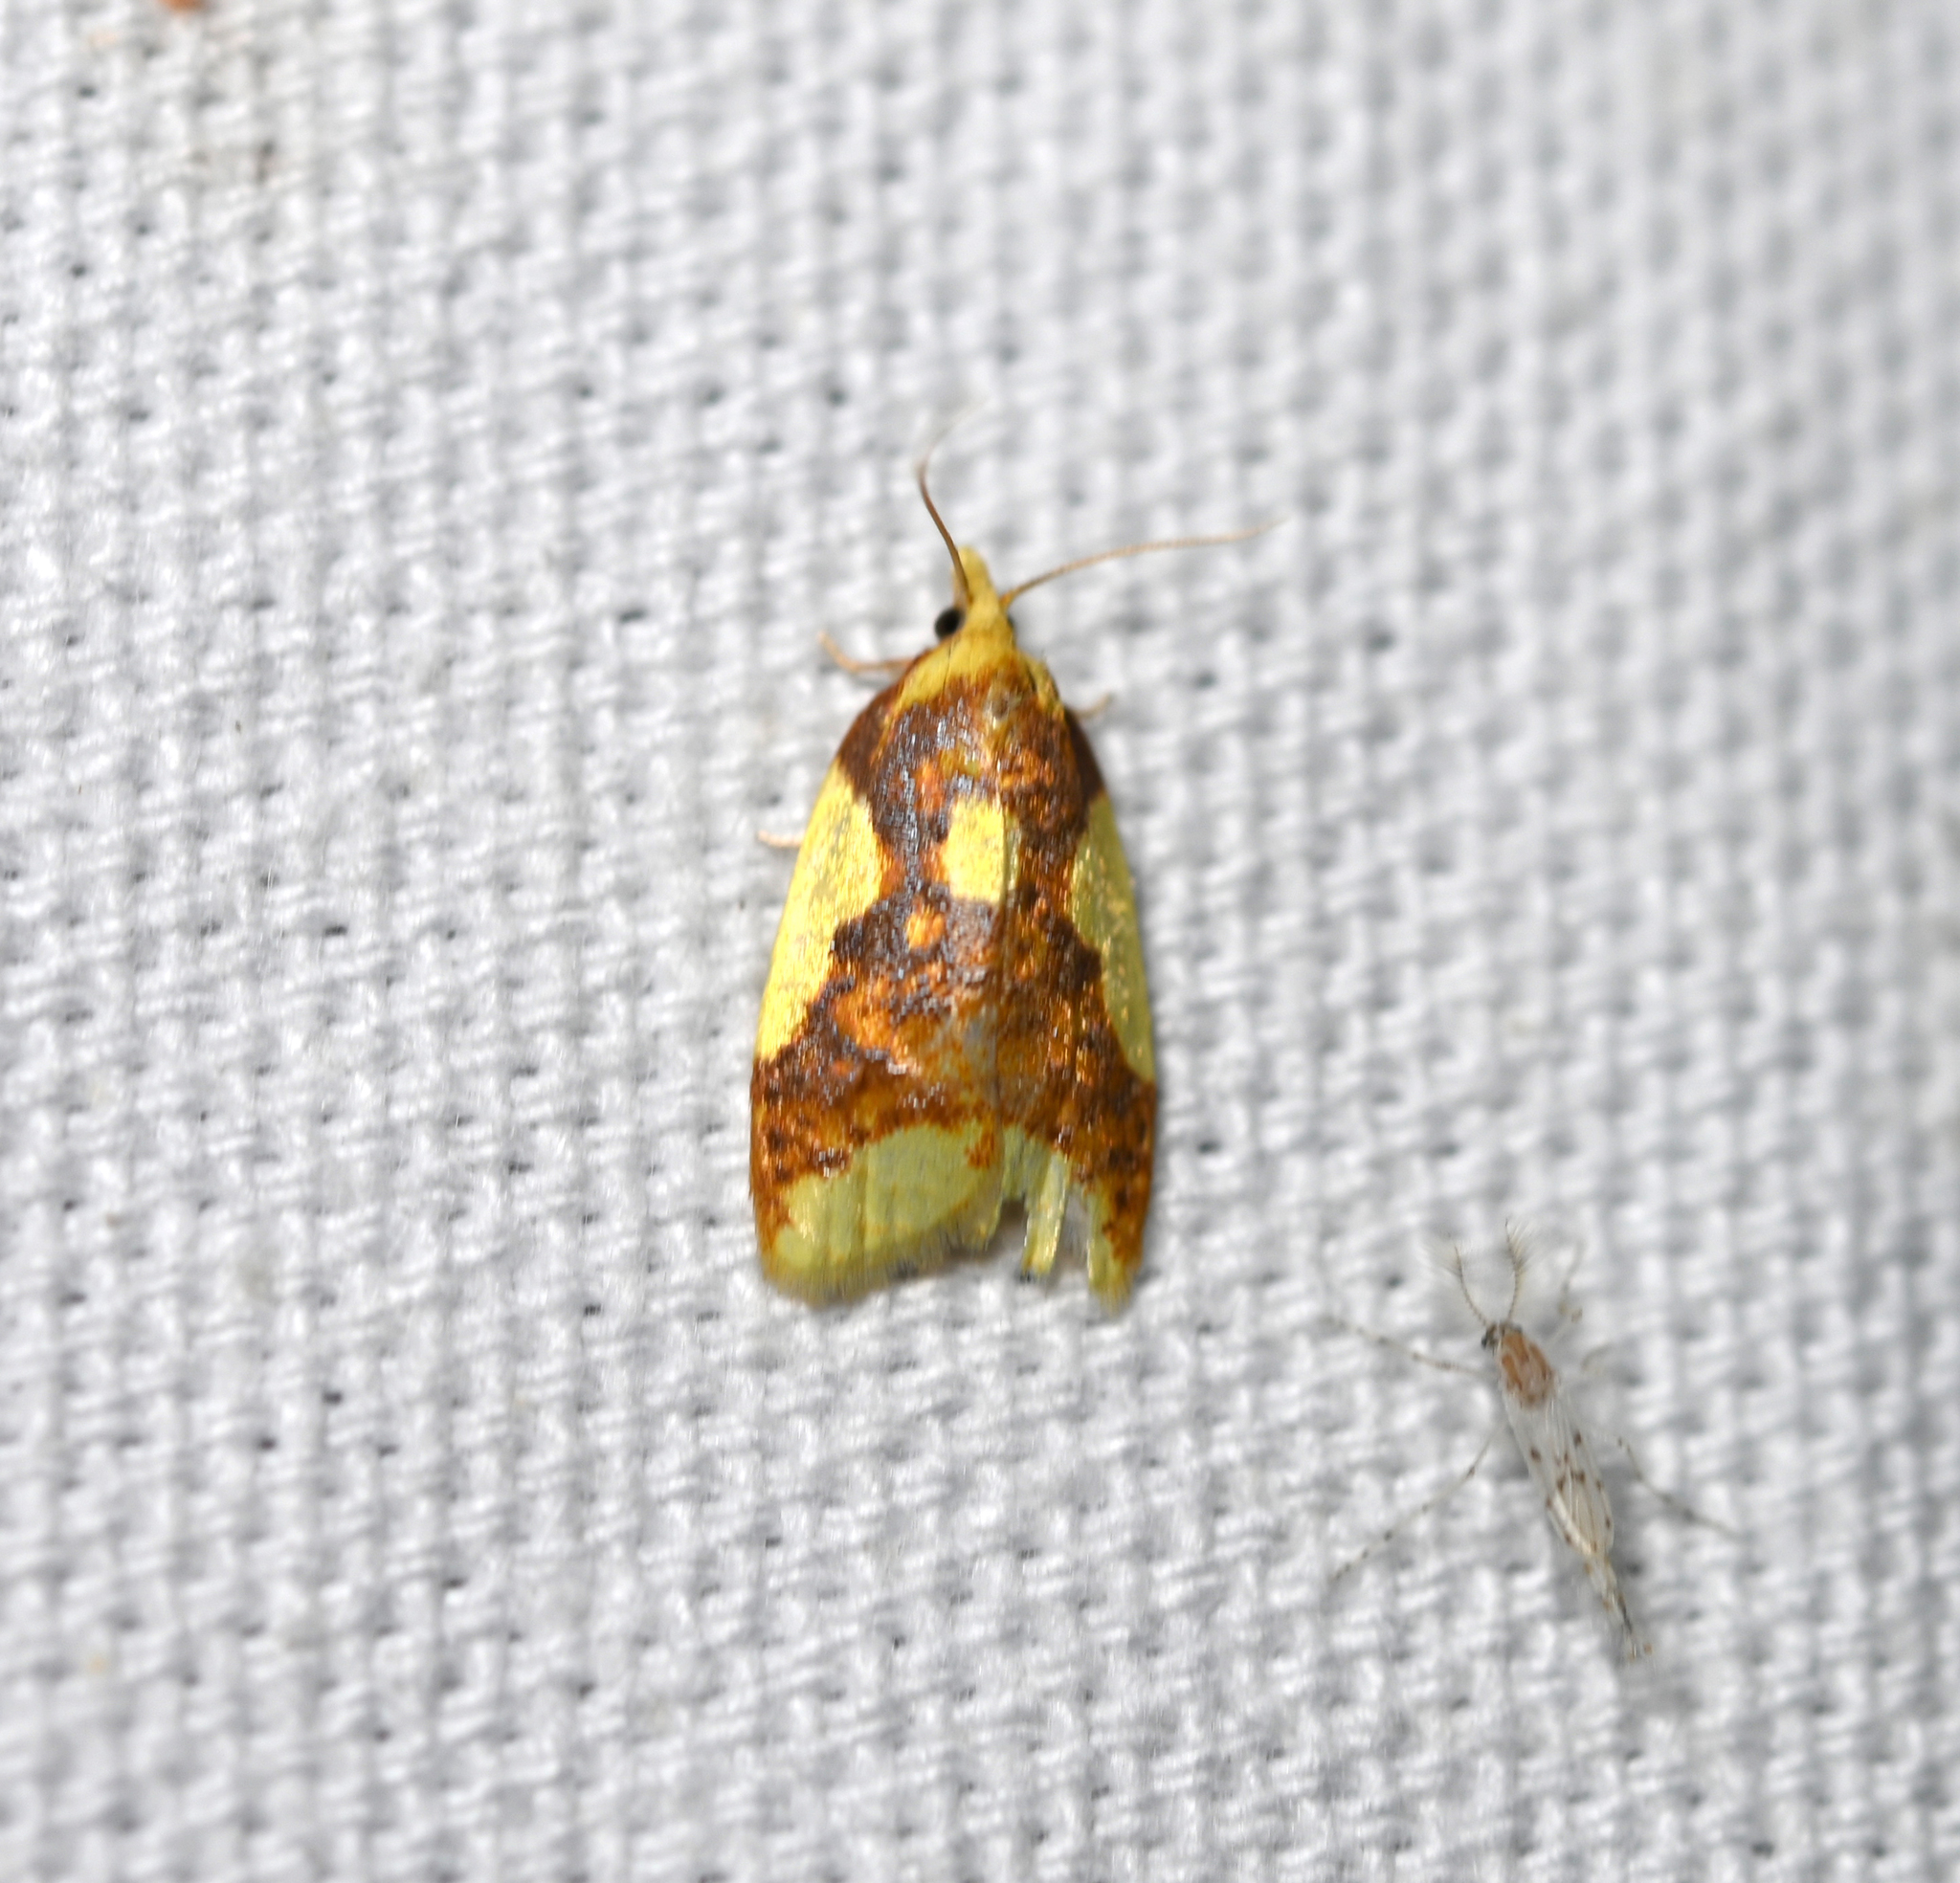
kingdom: Animalia
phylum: Arthropoda
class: Insecta
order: Lepidoptera
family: Tortricidae
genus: Sparganothis
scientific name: Sparganothis pulcherrimana
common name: Beautiful sparganothis
